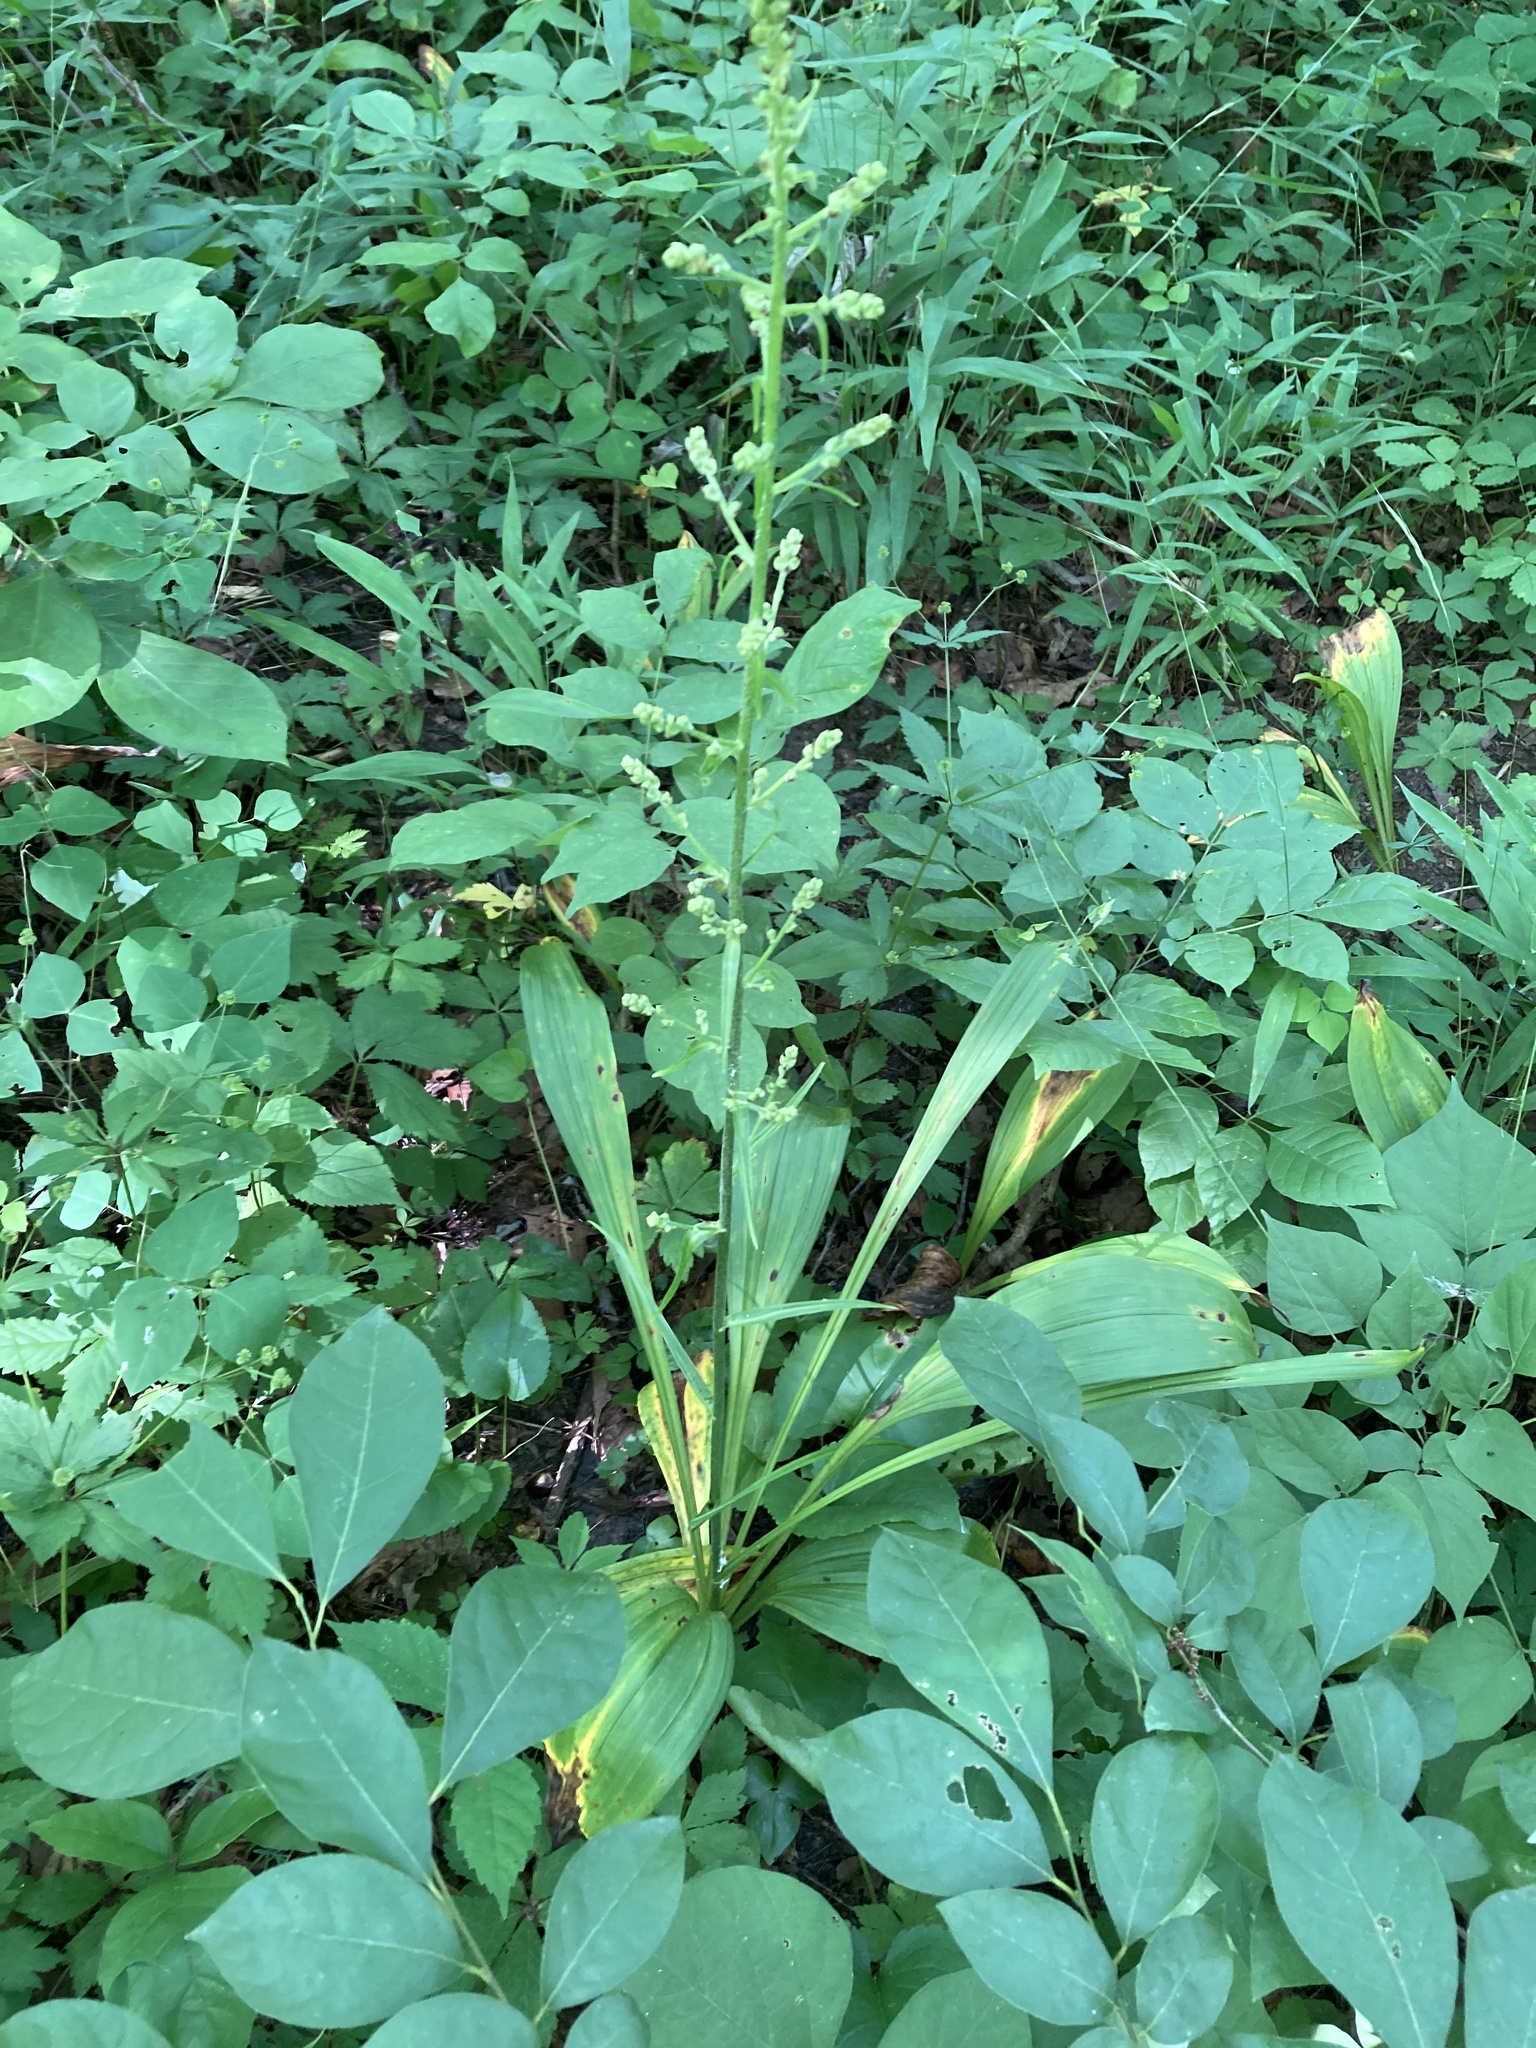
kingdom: Plantae
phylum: Tracheophyta
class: Liliopsida
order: Liliales
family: Melanthiaceae
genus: Veratrum
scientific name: Veratrum woodii
